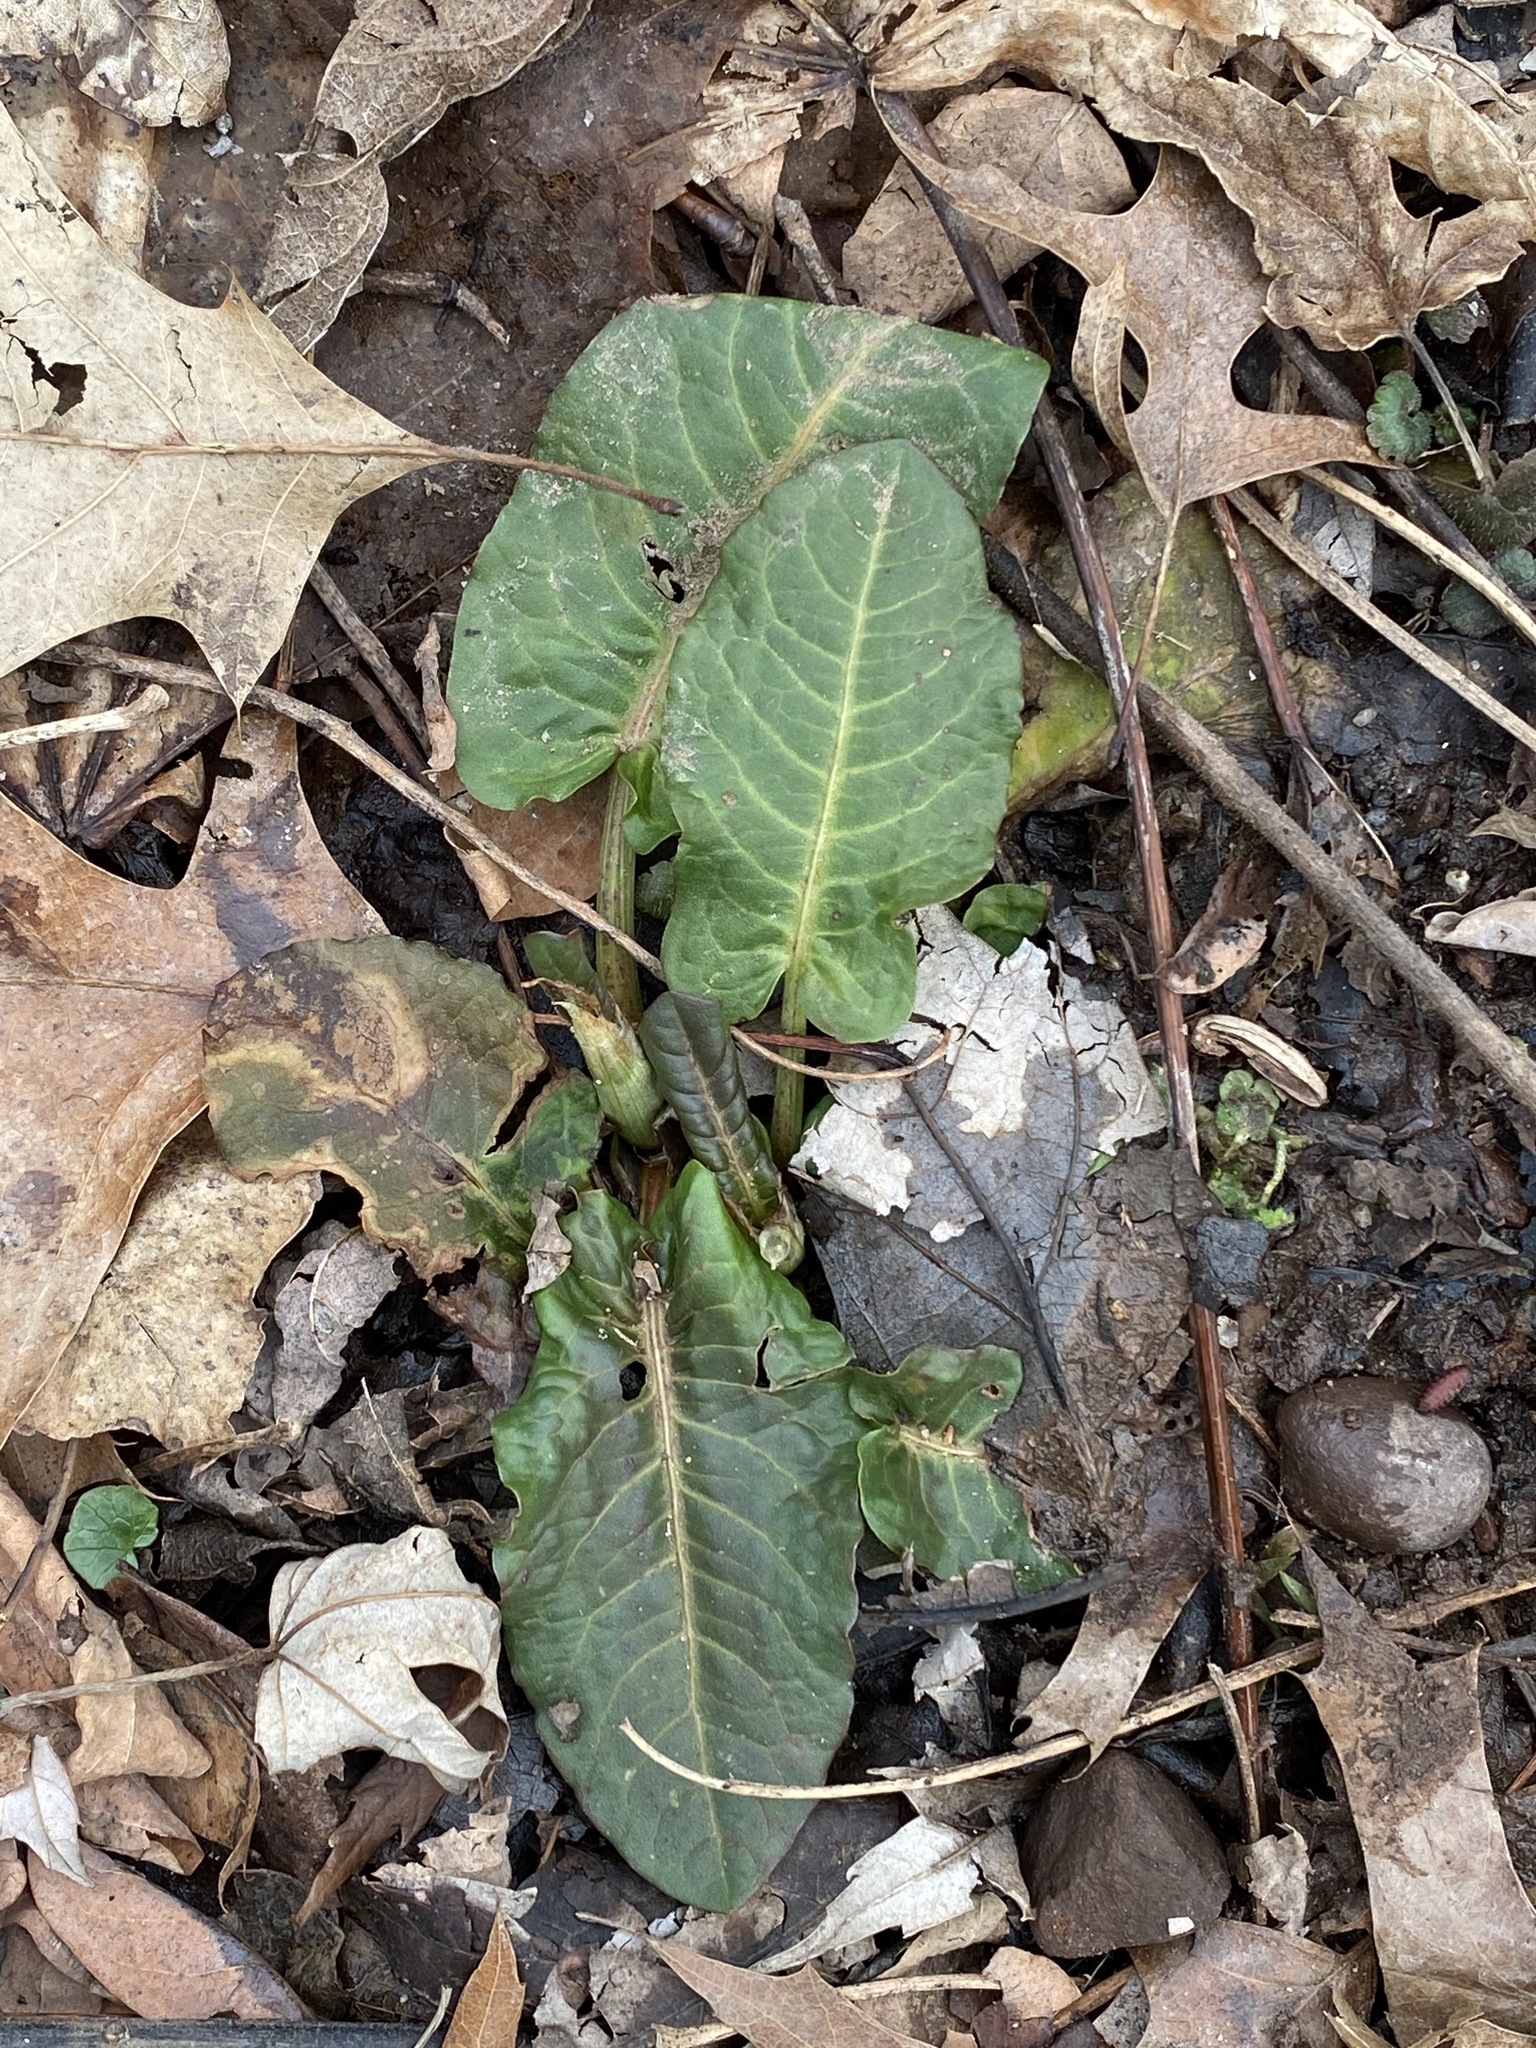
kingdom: Plantae
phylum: Tracheophyta
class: Magnoliopsida
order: Caryophyllales
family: Polygonaceae
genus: Rumex
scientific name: Rumex obtusifolius
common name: Bitter dock
